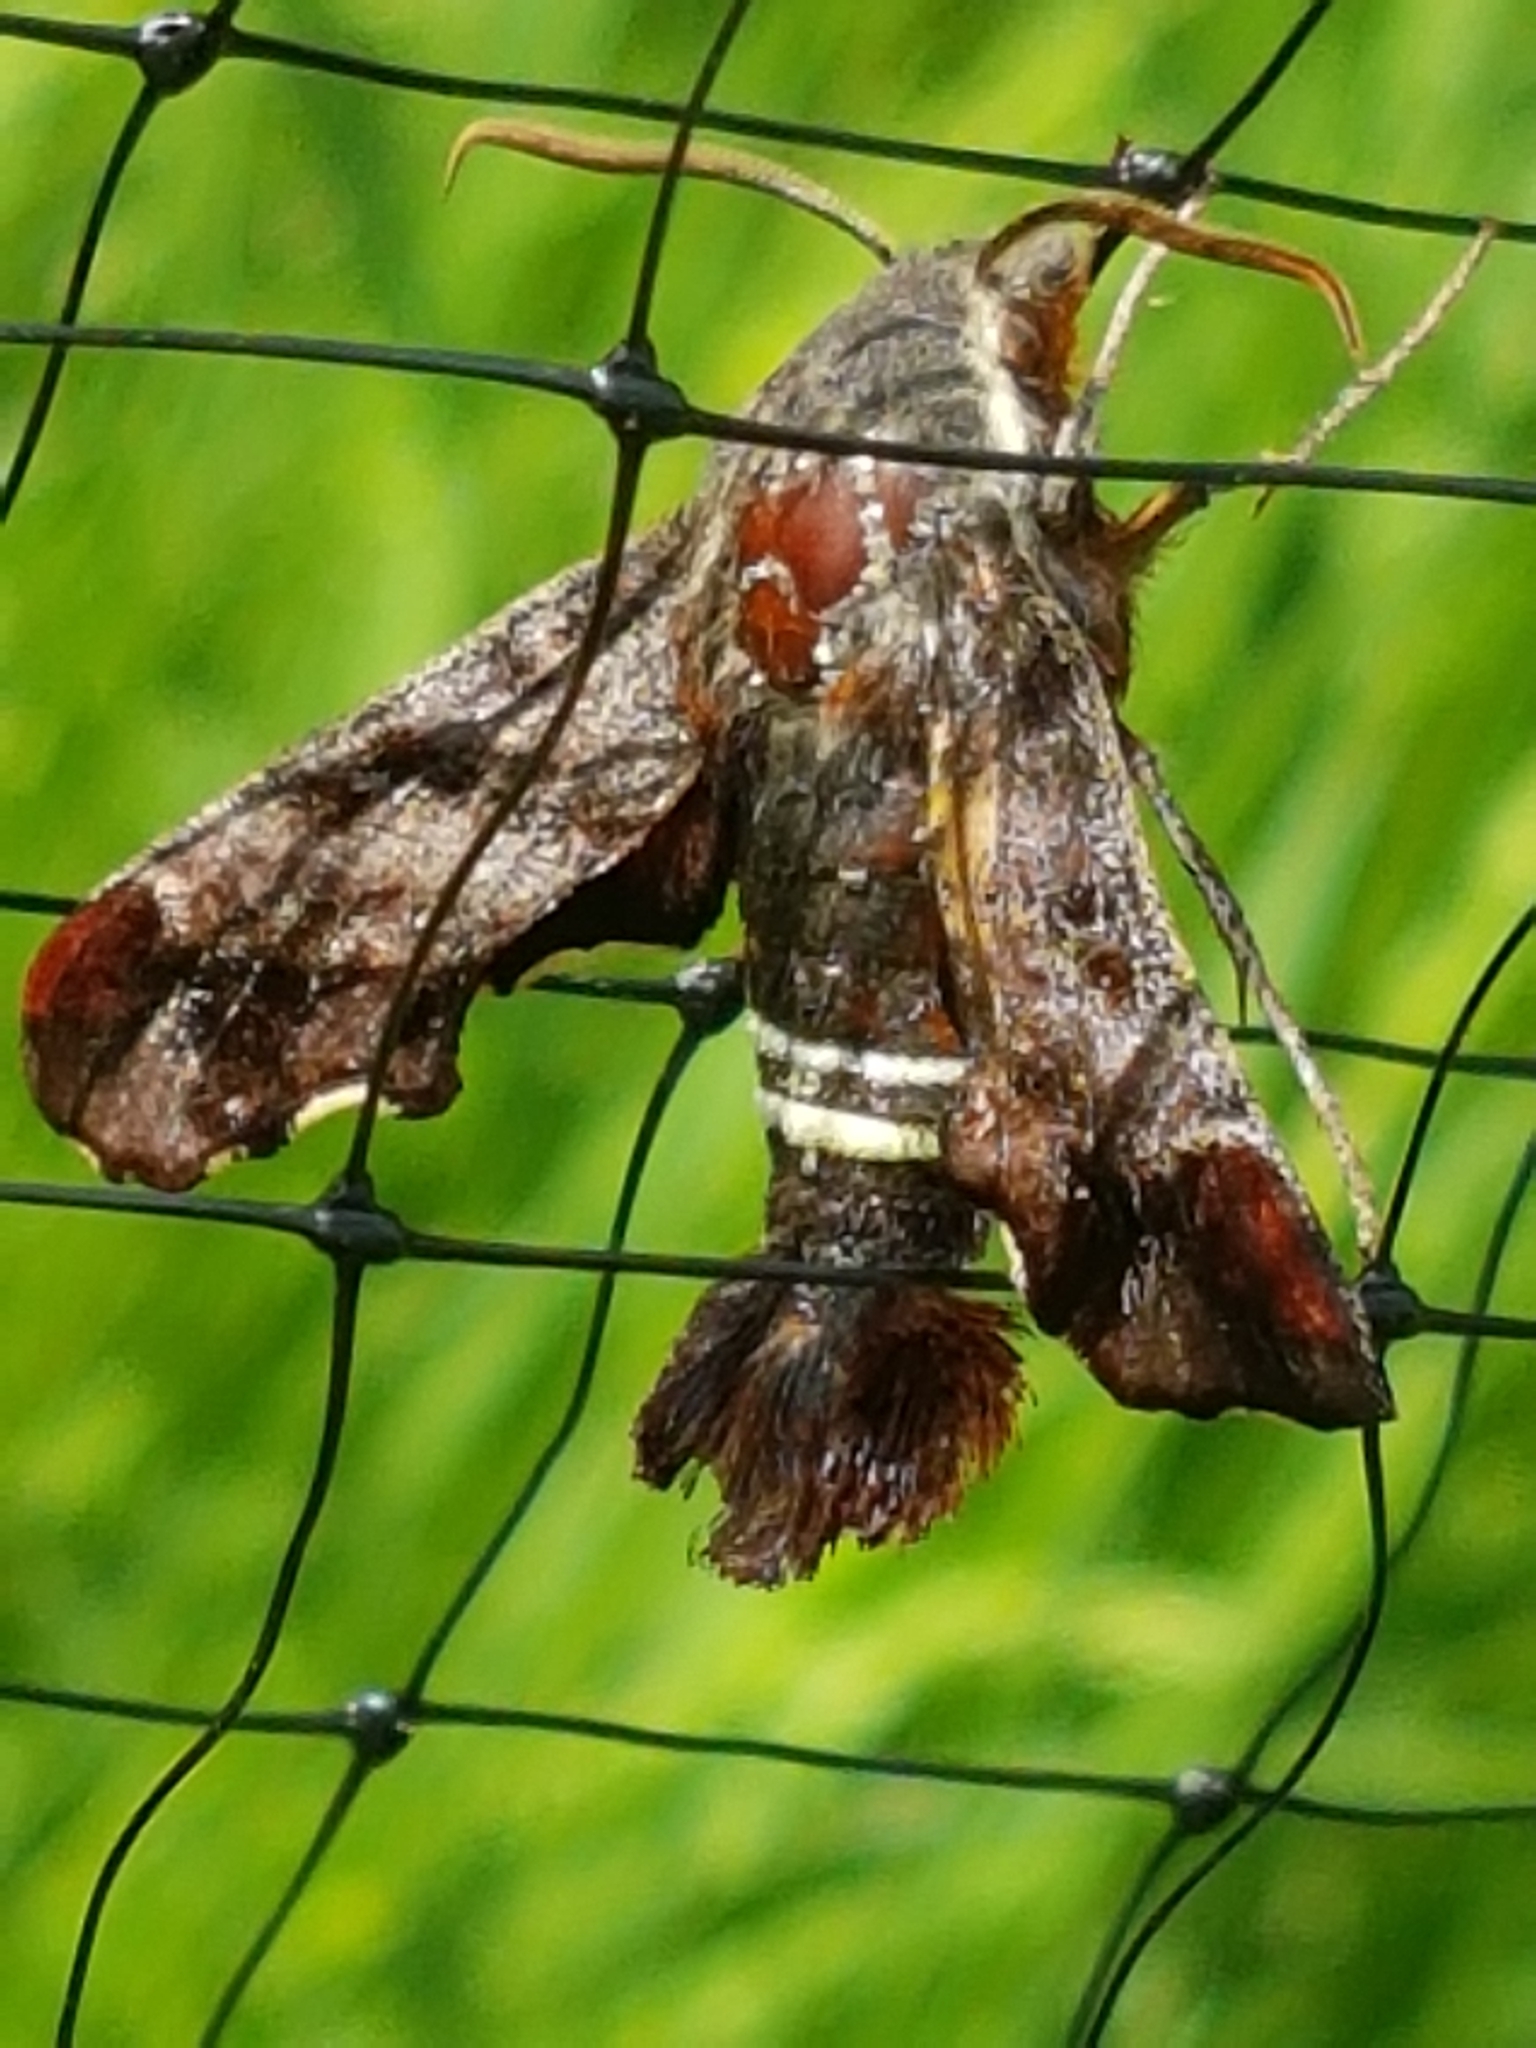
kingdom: Animalia
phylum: Arthropoda
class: Insecta
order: Lepidoptera
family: Sphingidae
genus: Amphion
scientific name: Amphion floridensis
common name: Nessus sphinx
